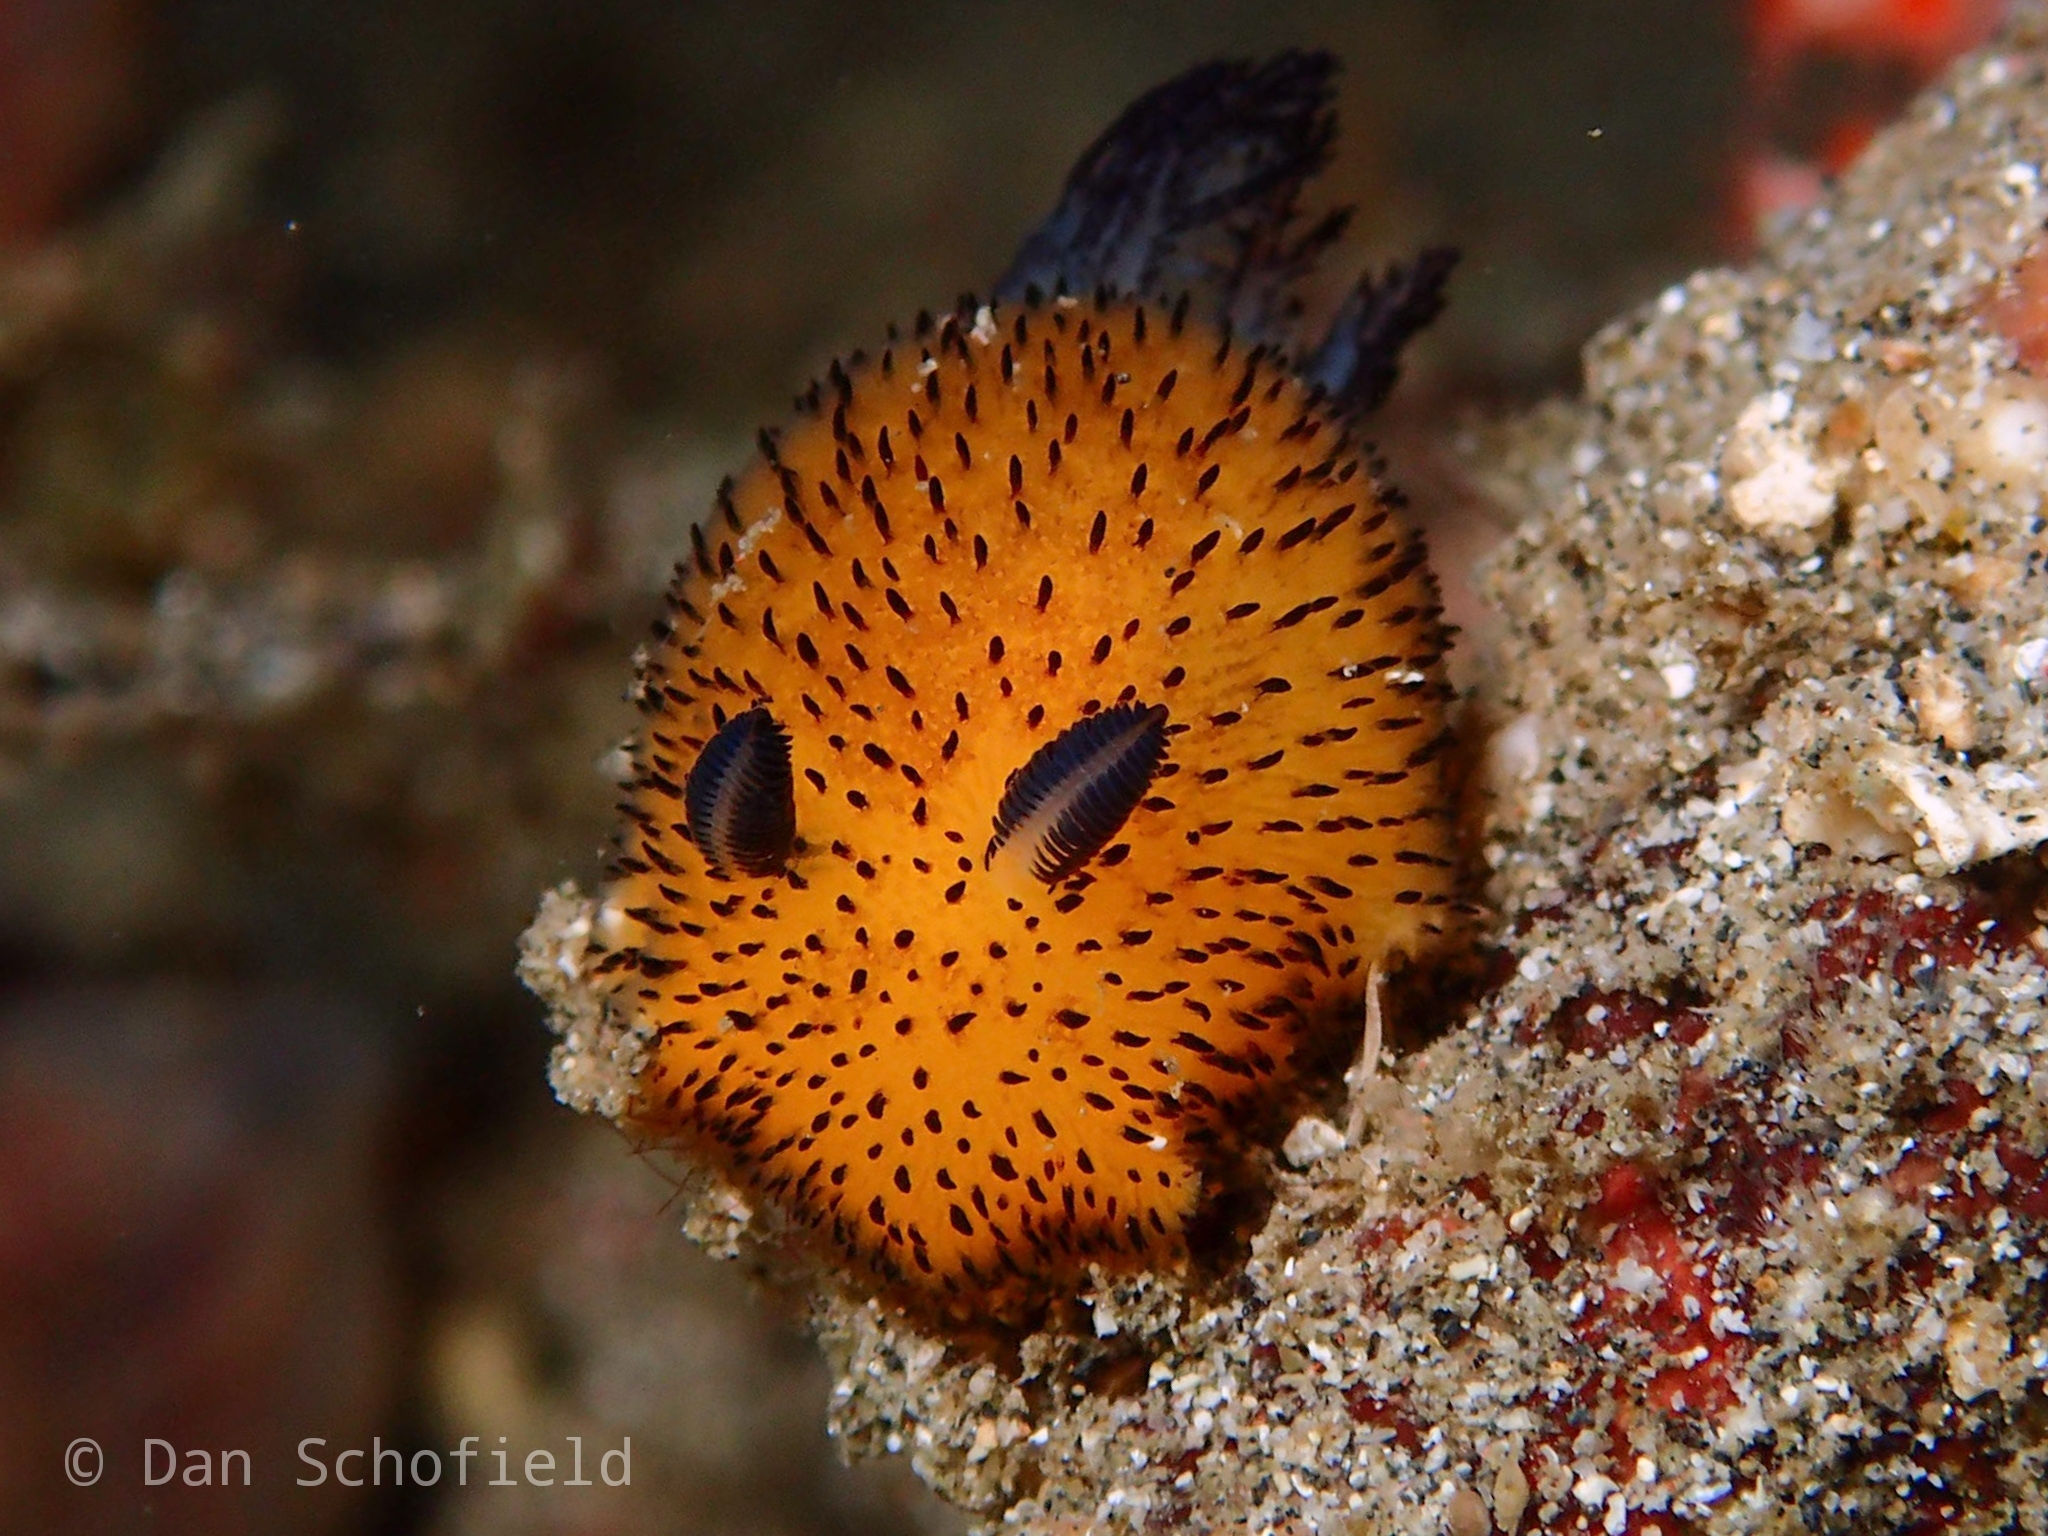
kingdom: Animalia
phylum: Mollusca
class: Gastropoda
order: Nudibranchia
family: Discodorididae
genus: Jorunna
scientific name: Jorunna parva
